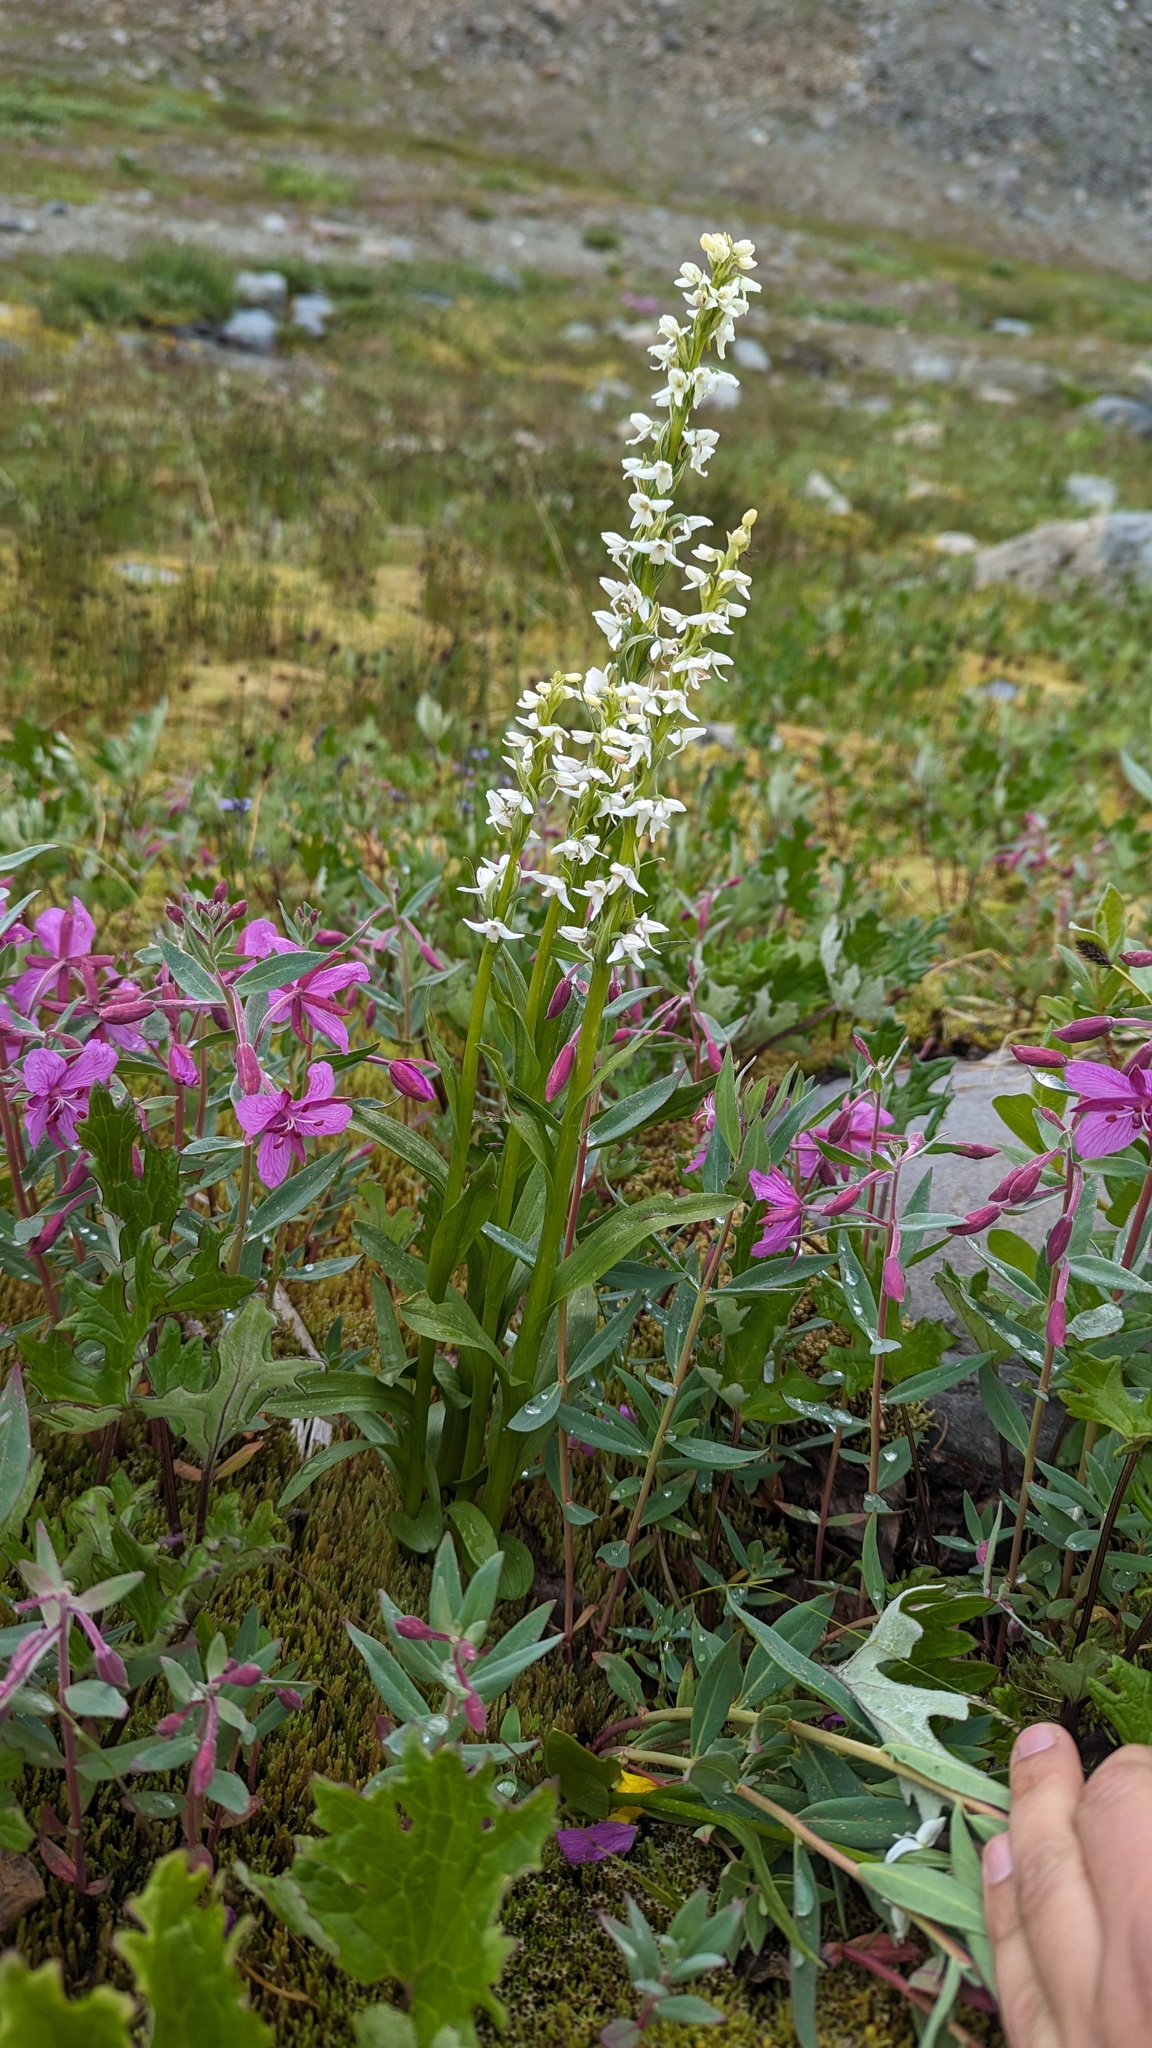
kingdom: Plantae
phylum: Tracheophyta
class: Liliopsida
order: Asparagales
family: Orchidaceae
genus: Platanthera
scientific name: Platanthera dilatata
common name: Bog candles
